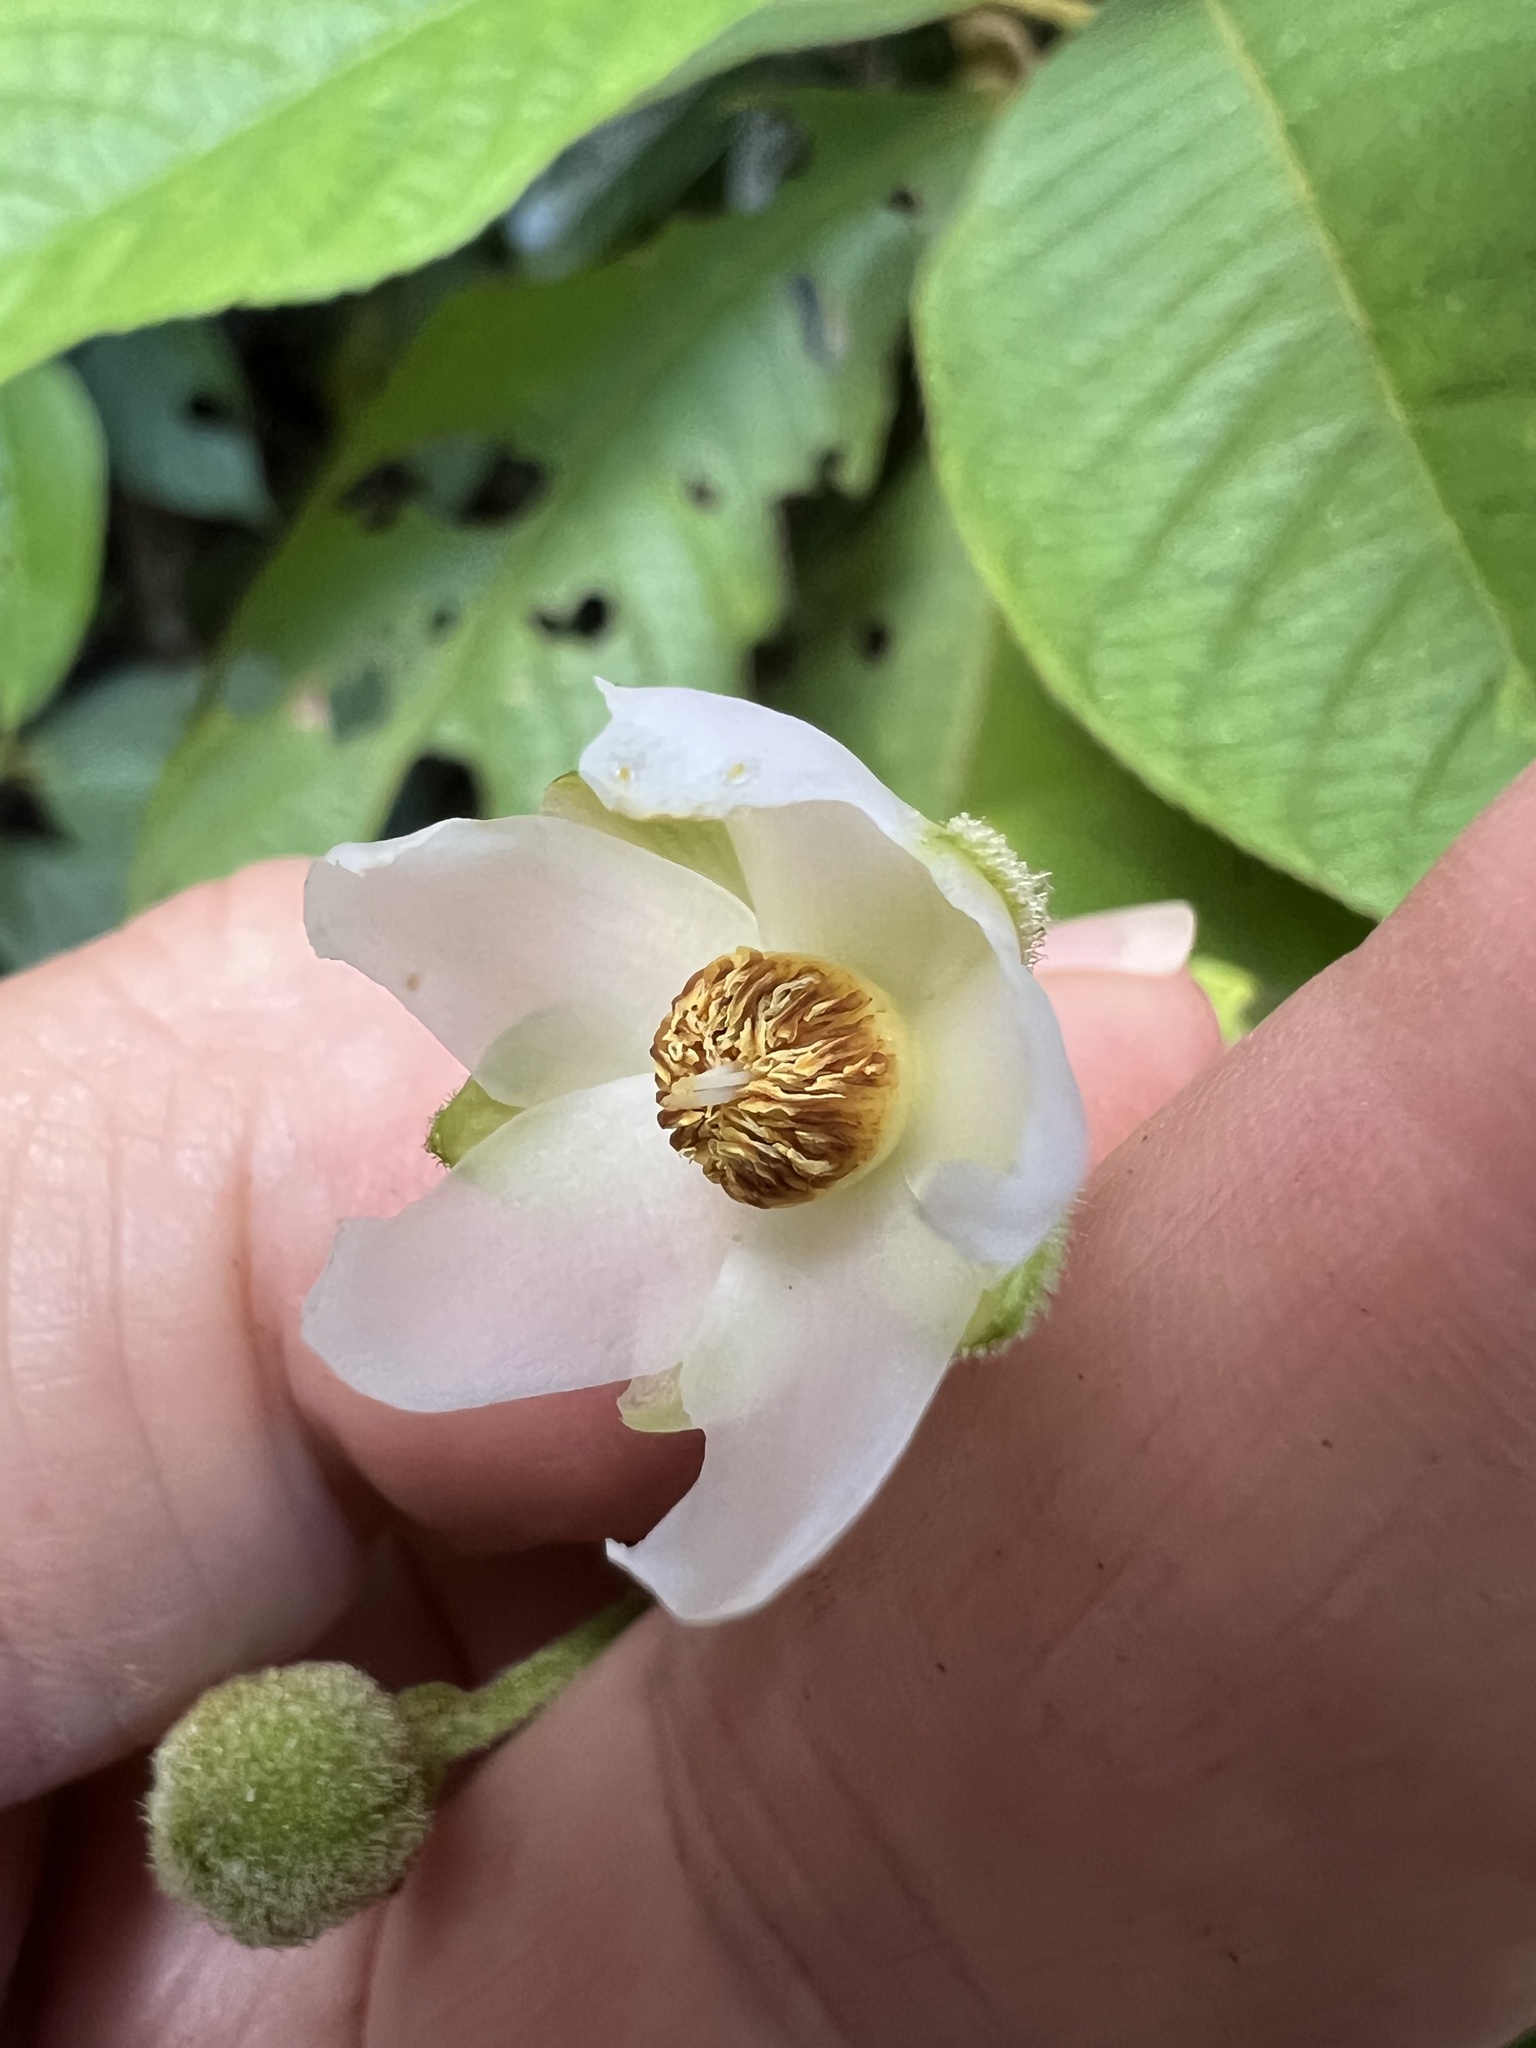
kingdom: Plantae
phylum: Tracheophyta
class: Magnoliopsida
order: Ericales
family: Actinidiaceae
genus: Saurauia
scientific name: Saurauia andreana
